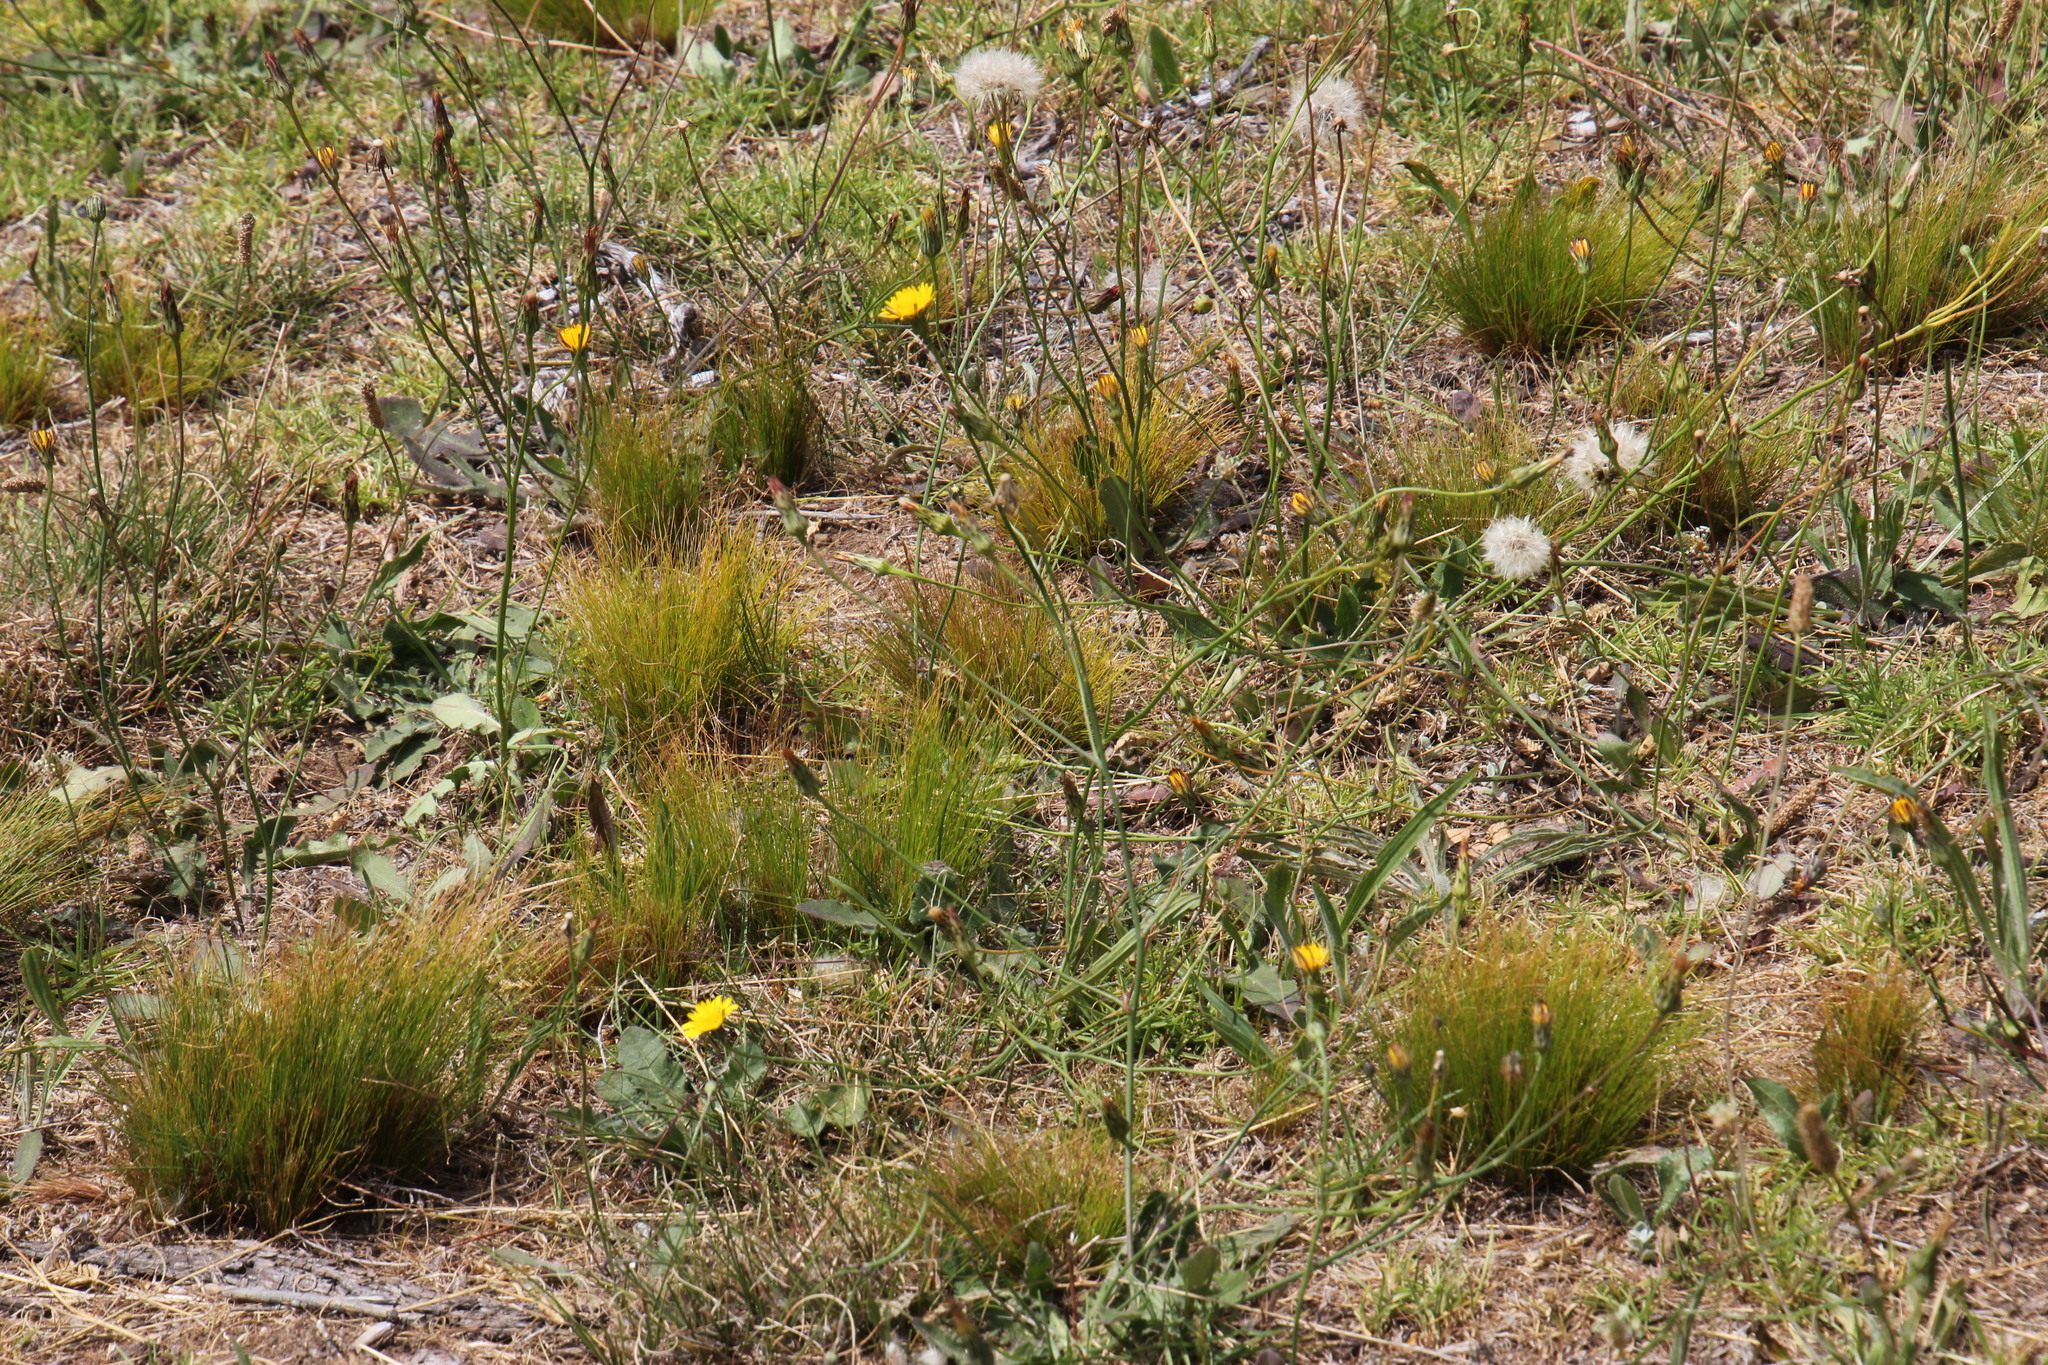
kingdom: Plantae
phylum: Tracheophyta
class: Magnoliopsida
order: Asterales
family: Asteraceae
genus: Hypochaeris
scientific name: Hypochaeris radicata
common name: Flatweed
